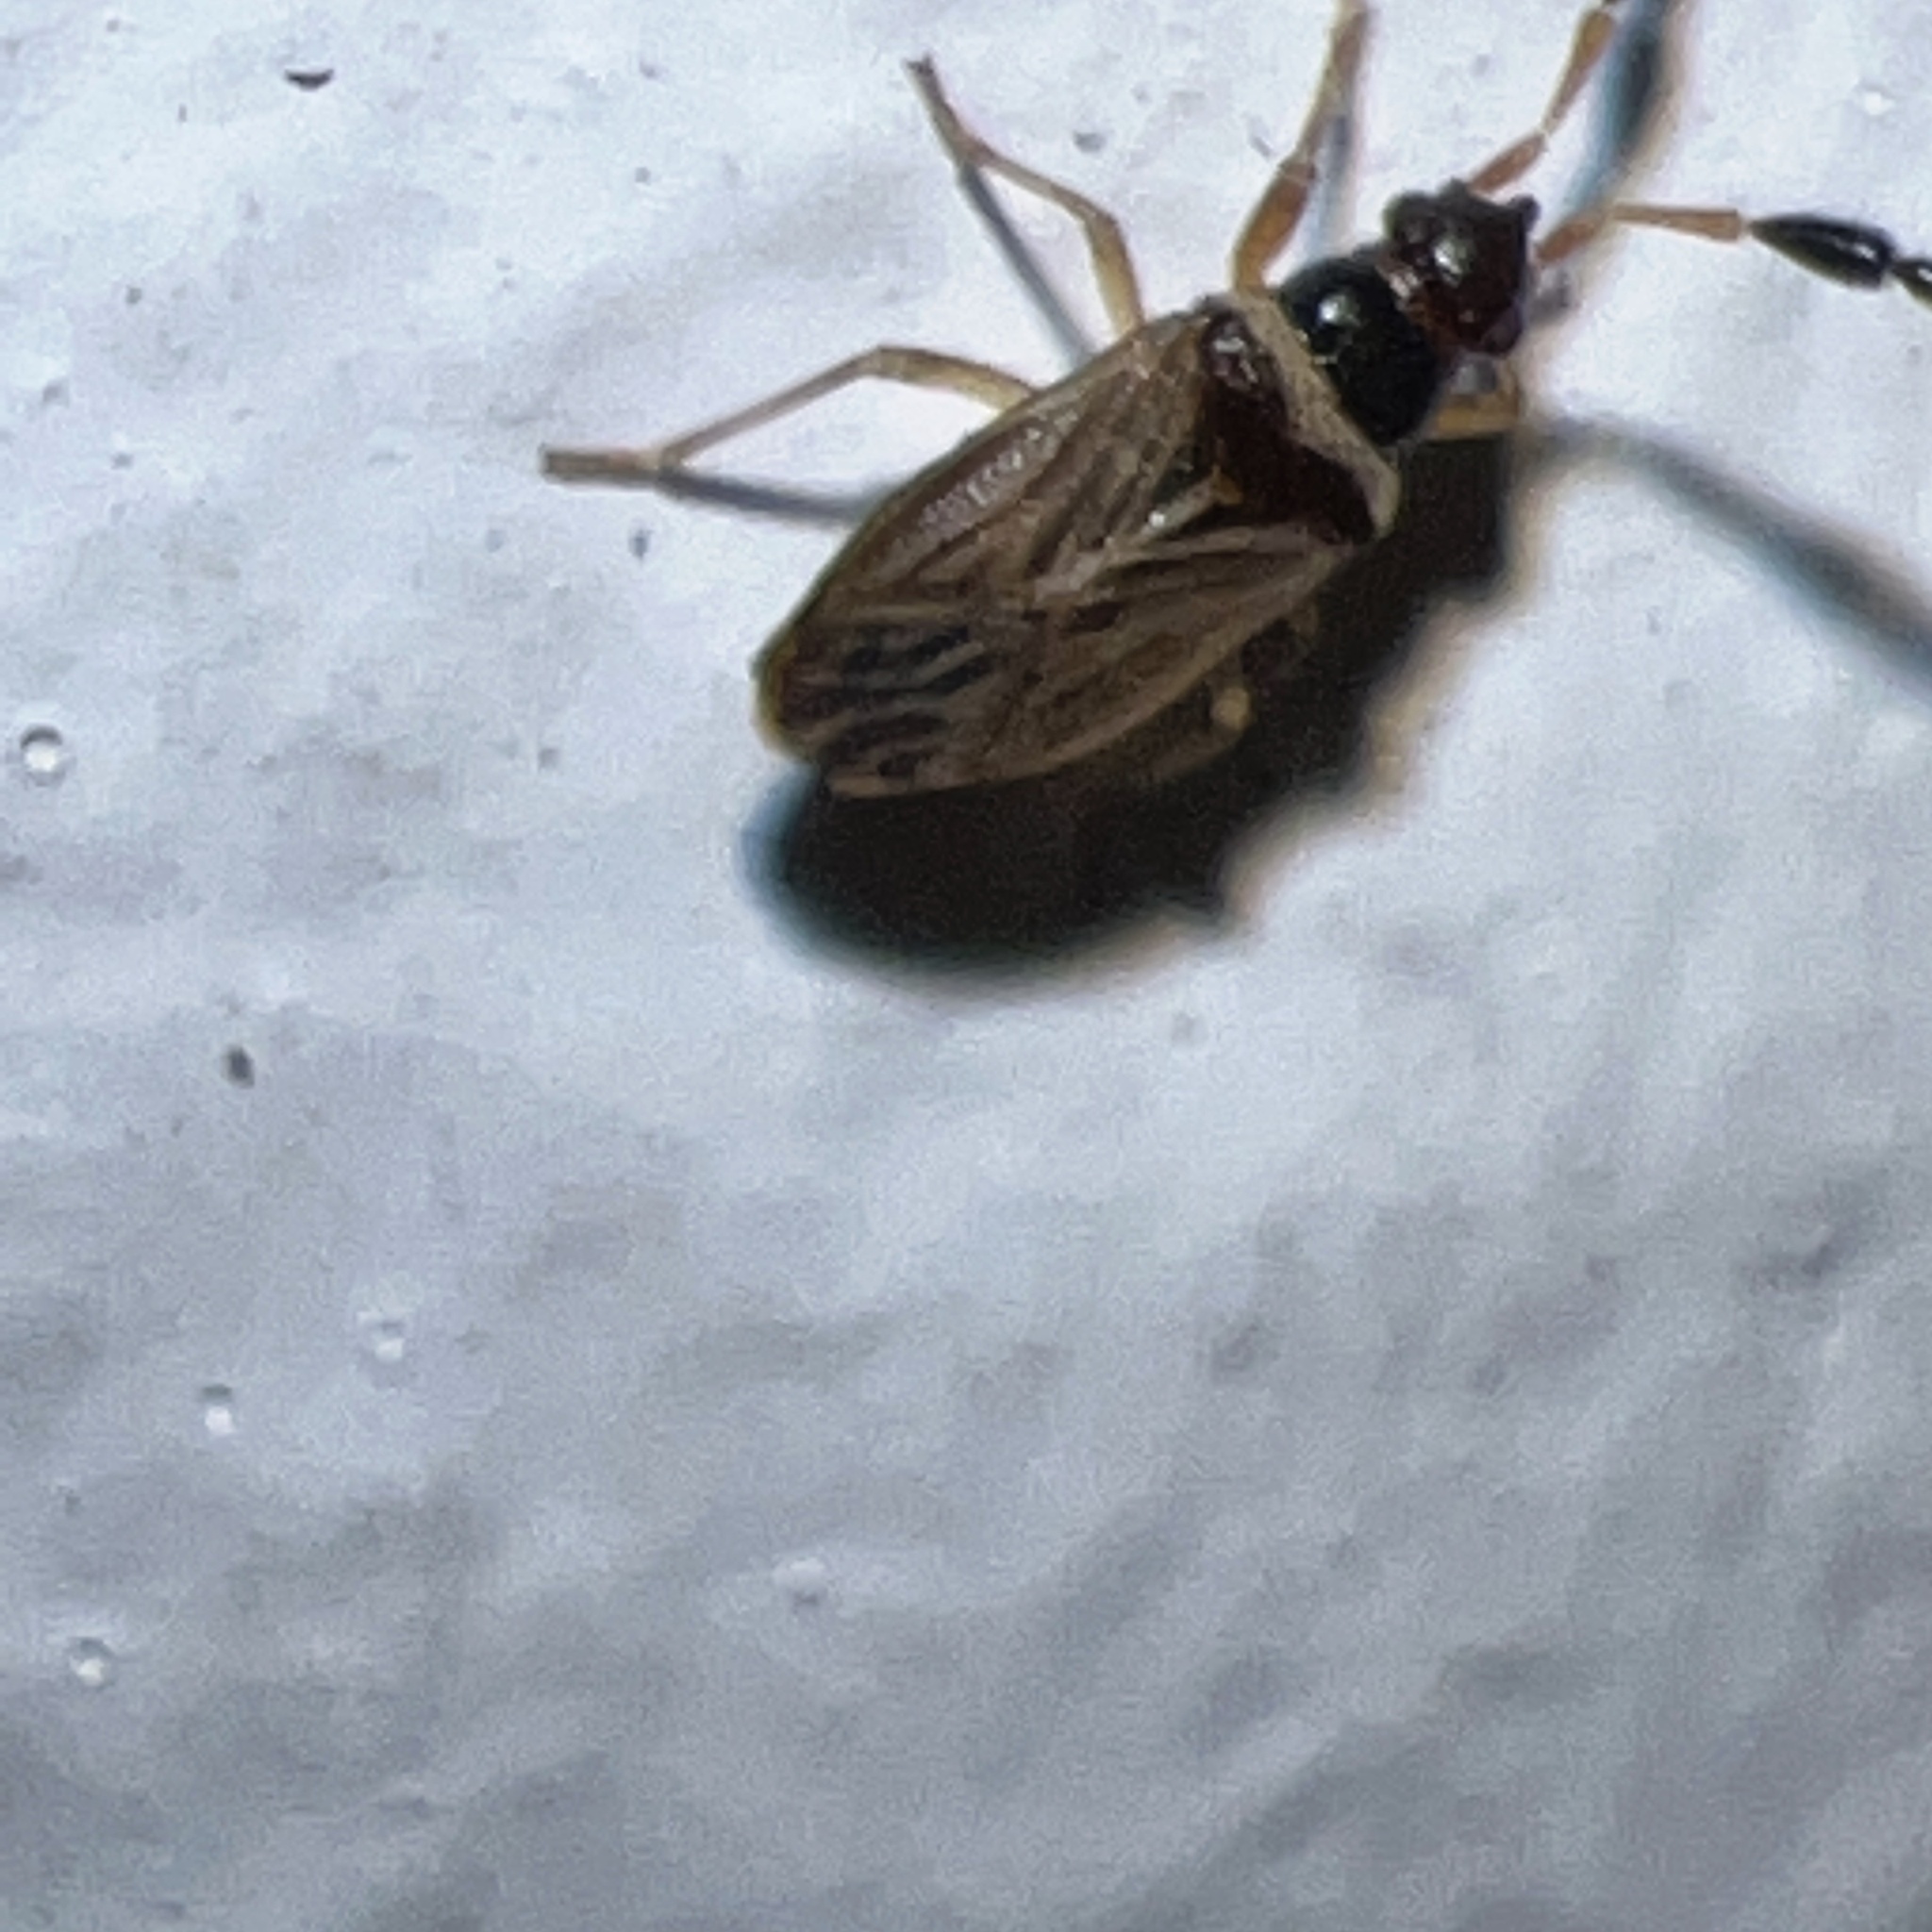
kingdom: Animalia
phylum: Arthropoda
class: Insecta
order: Hemiptera
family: Rhyparochromidae
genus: Ptochiomera
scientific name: Ptochiomera nodosa
